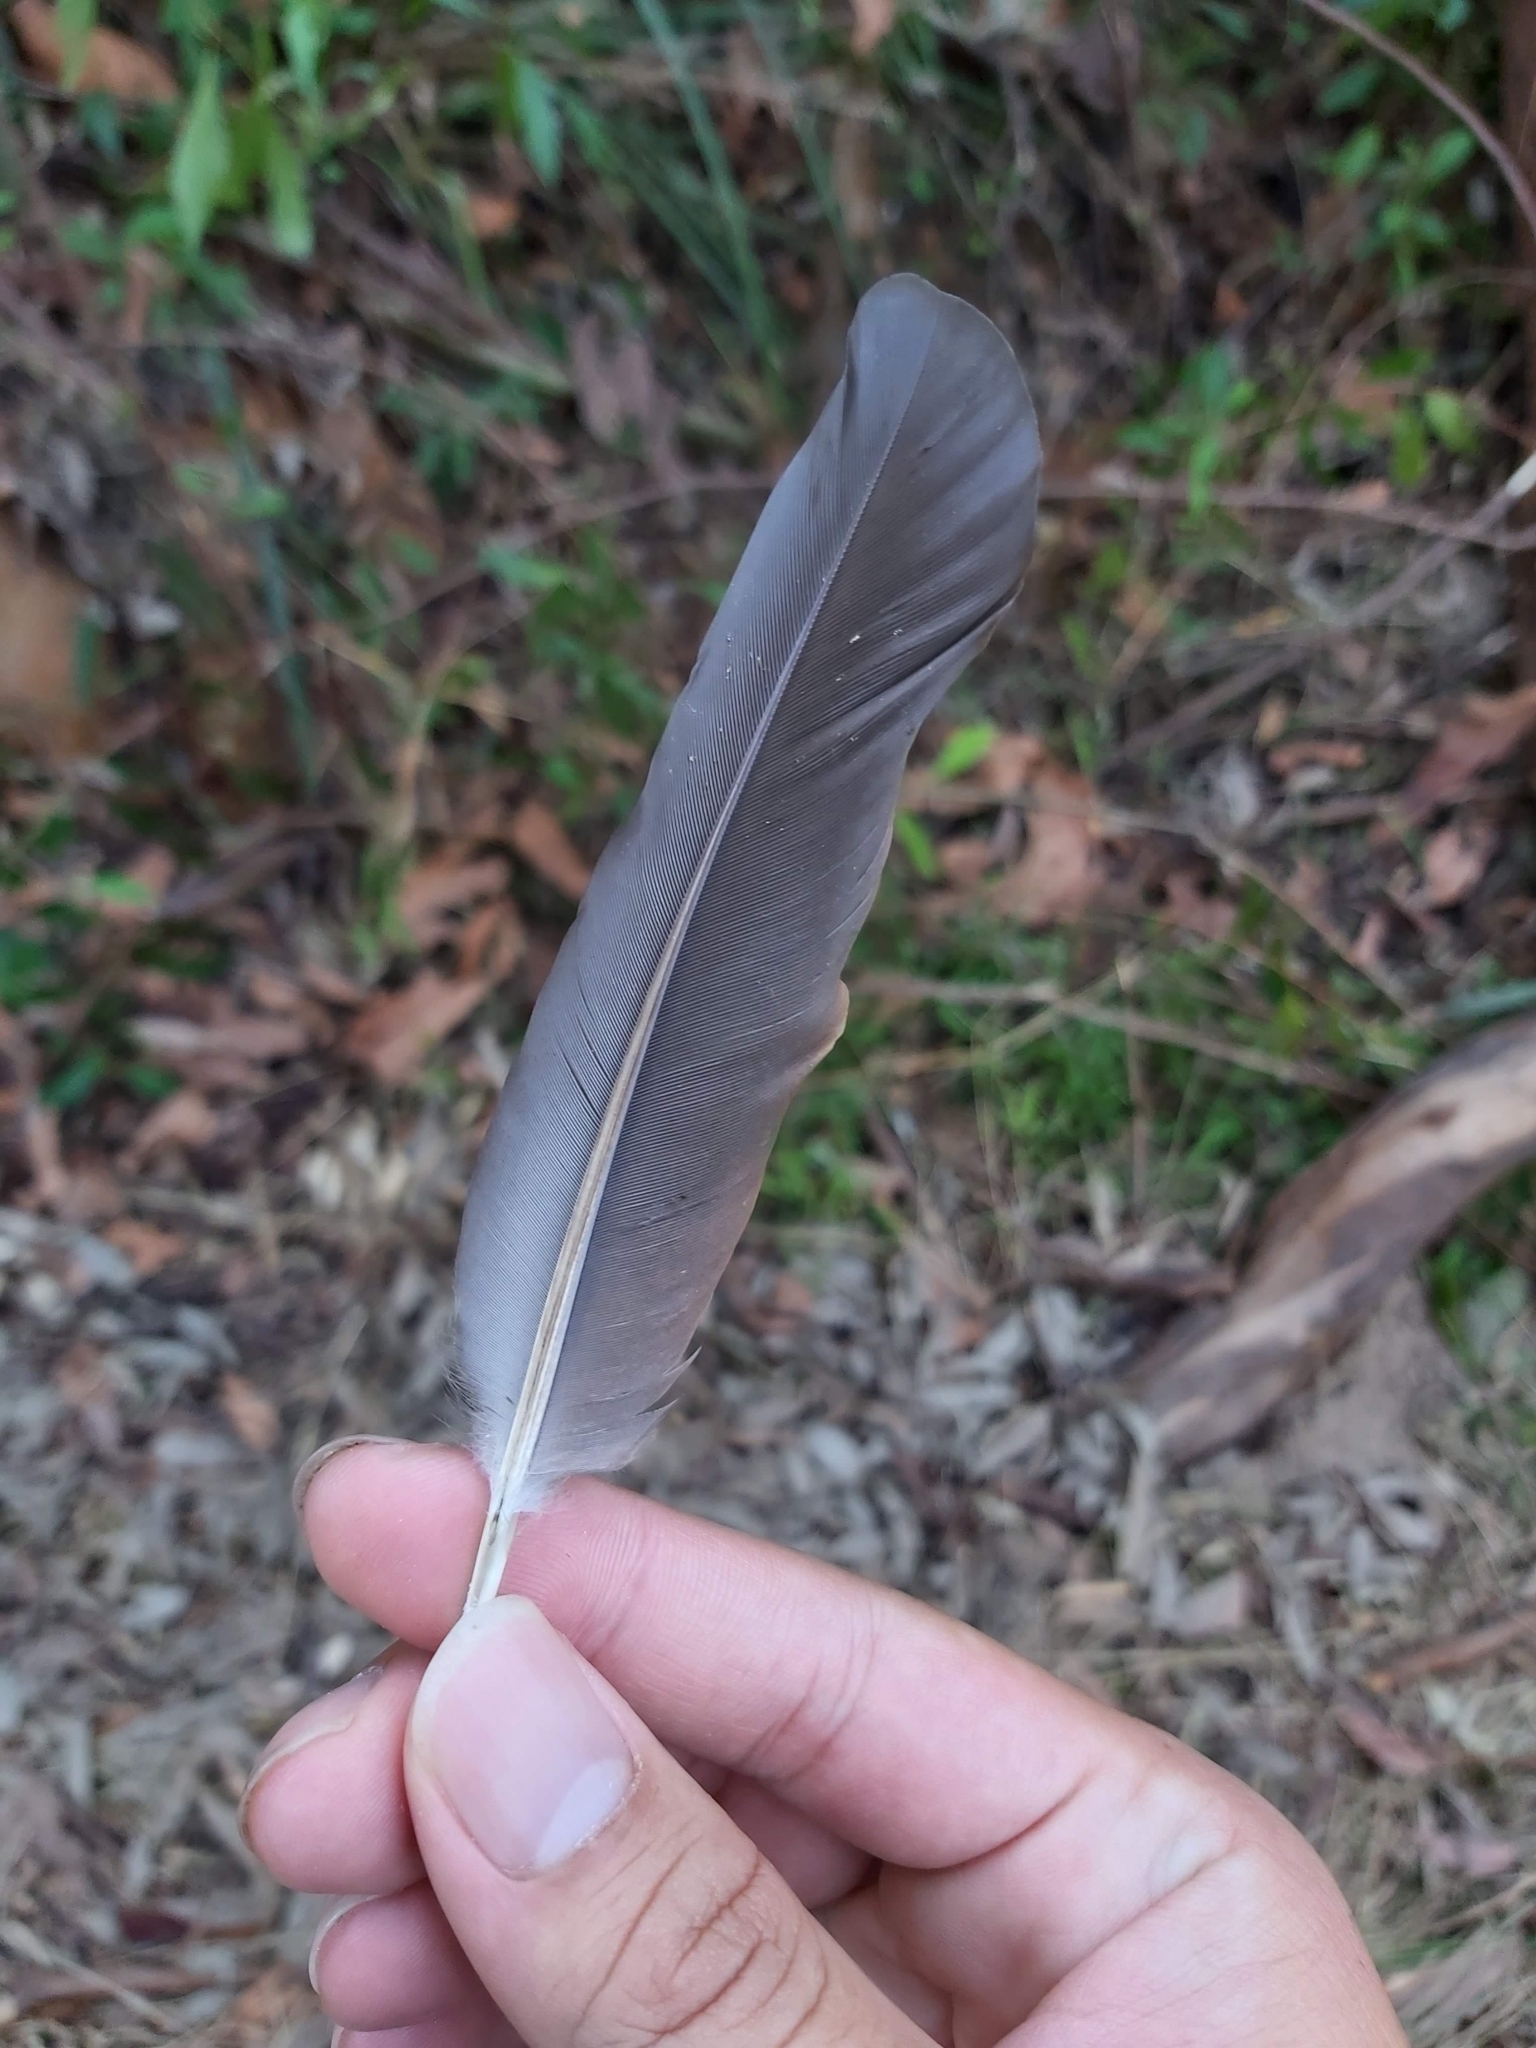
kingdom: Animalia
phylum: Chordata
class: Aves
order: Columbiformes
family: Columbidae
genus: Columba
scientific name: Columba livia
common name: Rock pigeon
